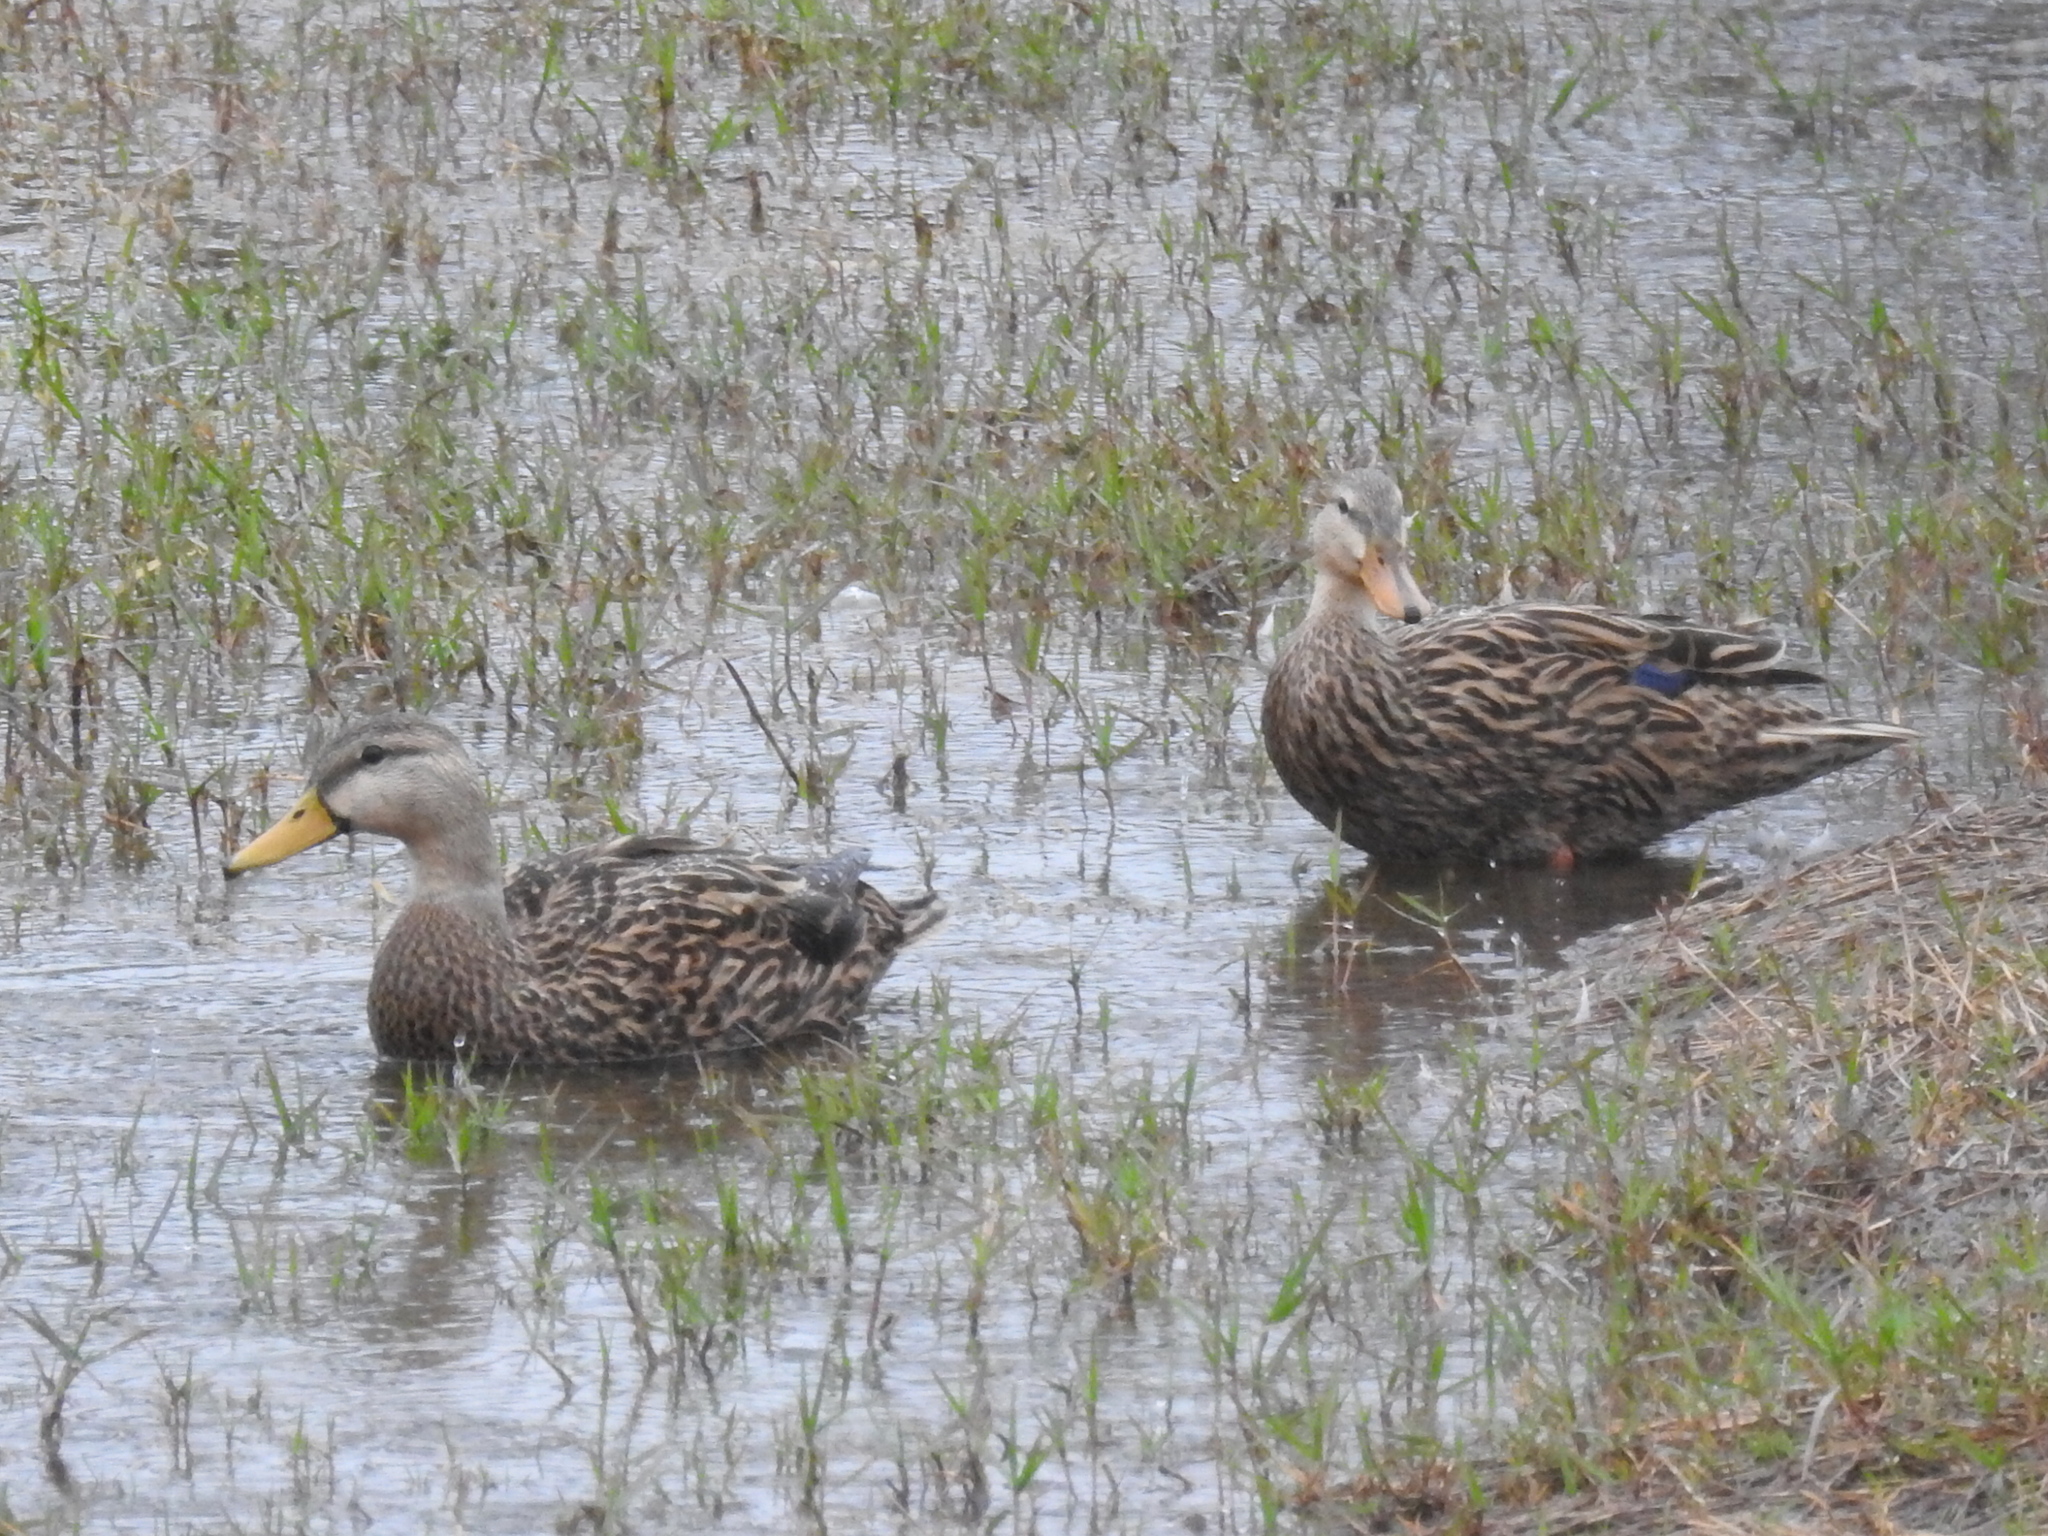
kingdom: Animalia
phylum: Chordata
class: Aves
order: Anseriformes
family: Anatidae
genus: Anas
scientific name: Anas fulvigula
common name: Mottled duck
